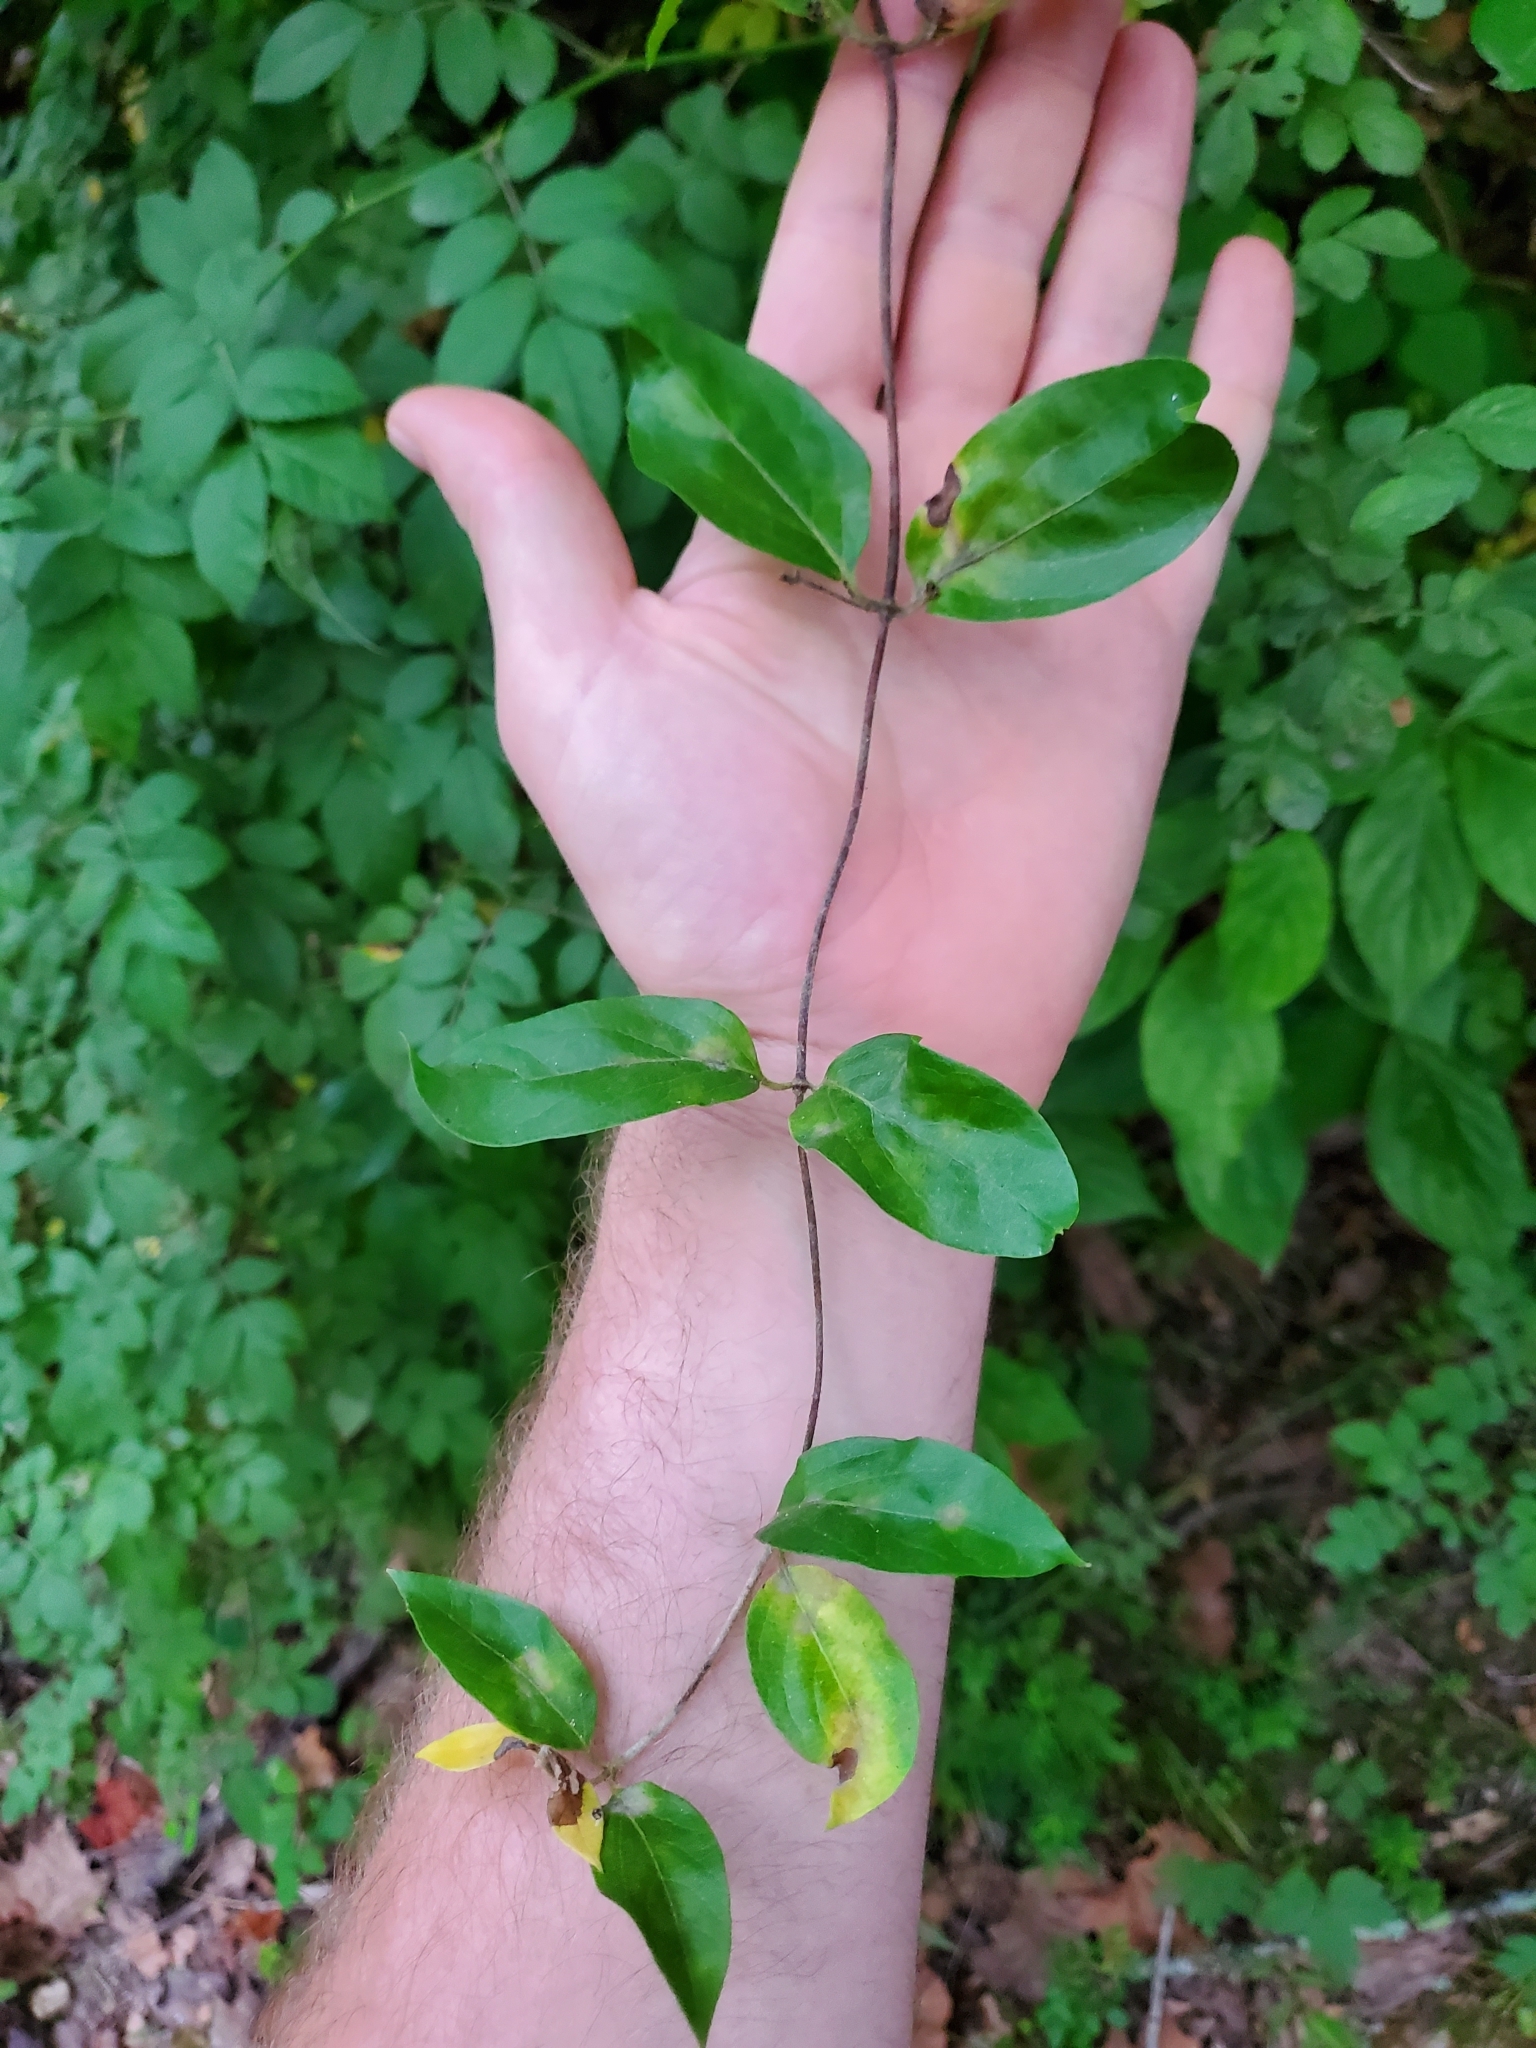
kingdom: Plantae
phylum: Tracheophyta
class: Magnoliopsida
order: Dipsacales
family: Caprifoliaceae
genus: Lonicera
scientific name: Lonicera japonica
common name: Japanese honeysuckle
